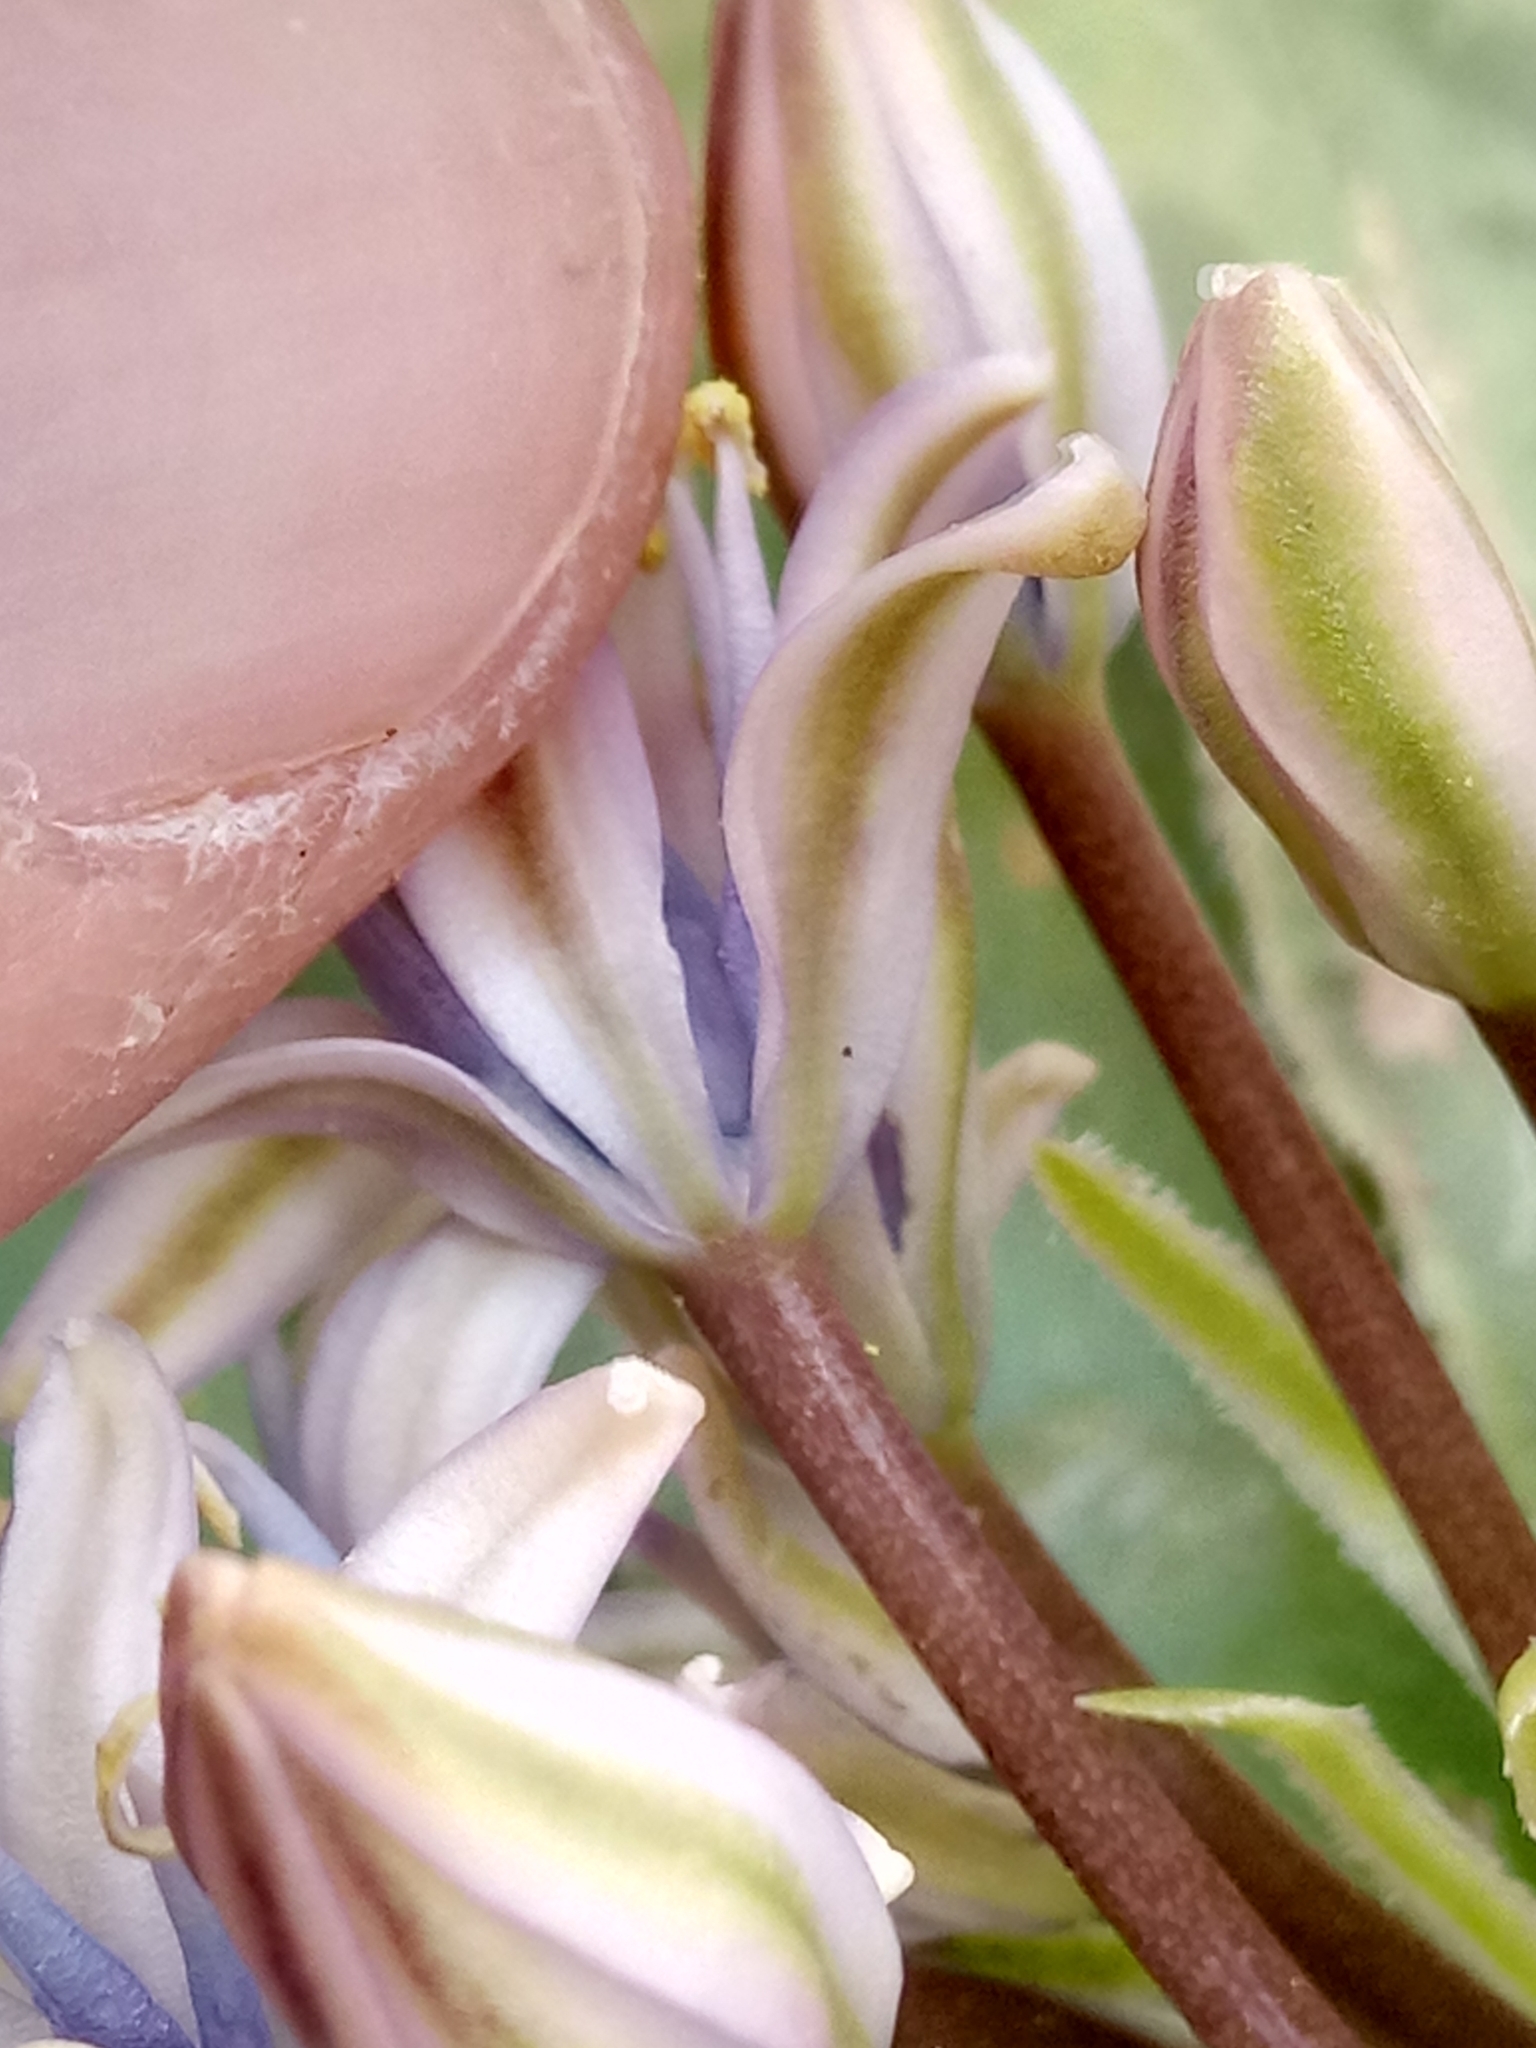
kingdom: Plantae
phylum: Tracheophyta
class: Liliopsida
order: Asparagales
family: Asparagaceae
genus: Scilla
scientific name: Scilla peruviana
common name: Portuguese squill
